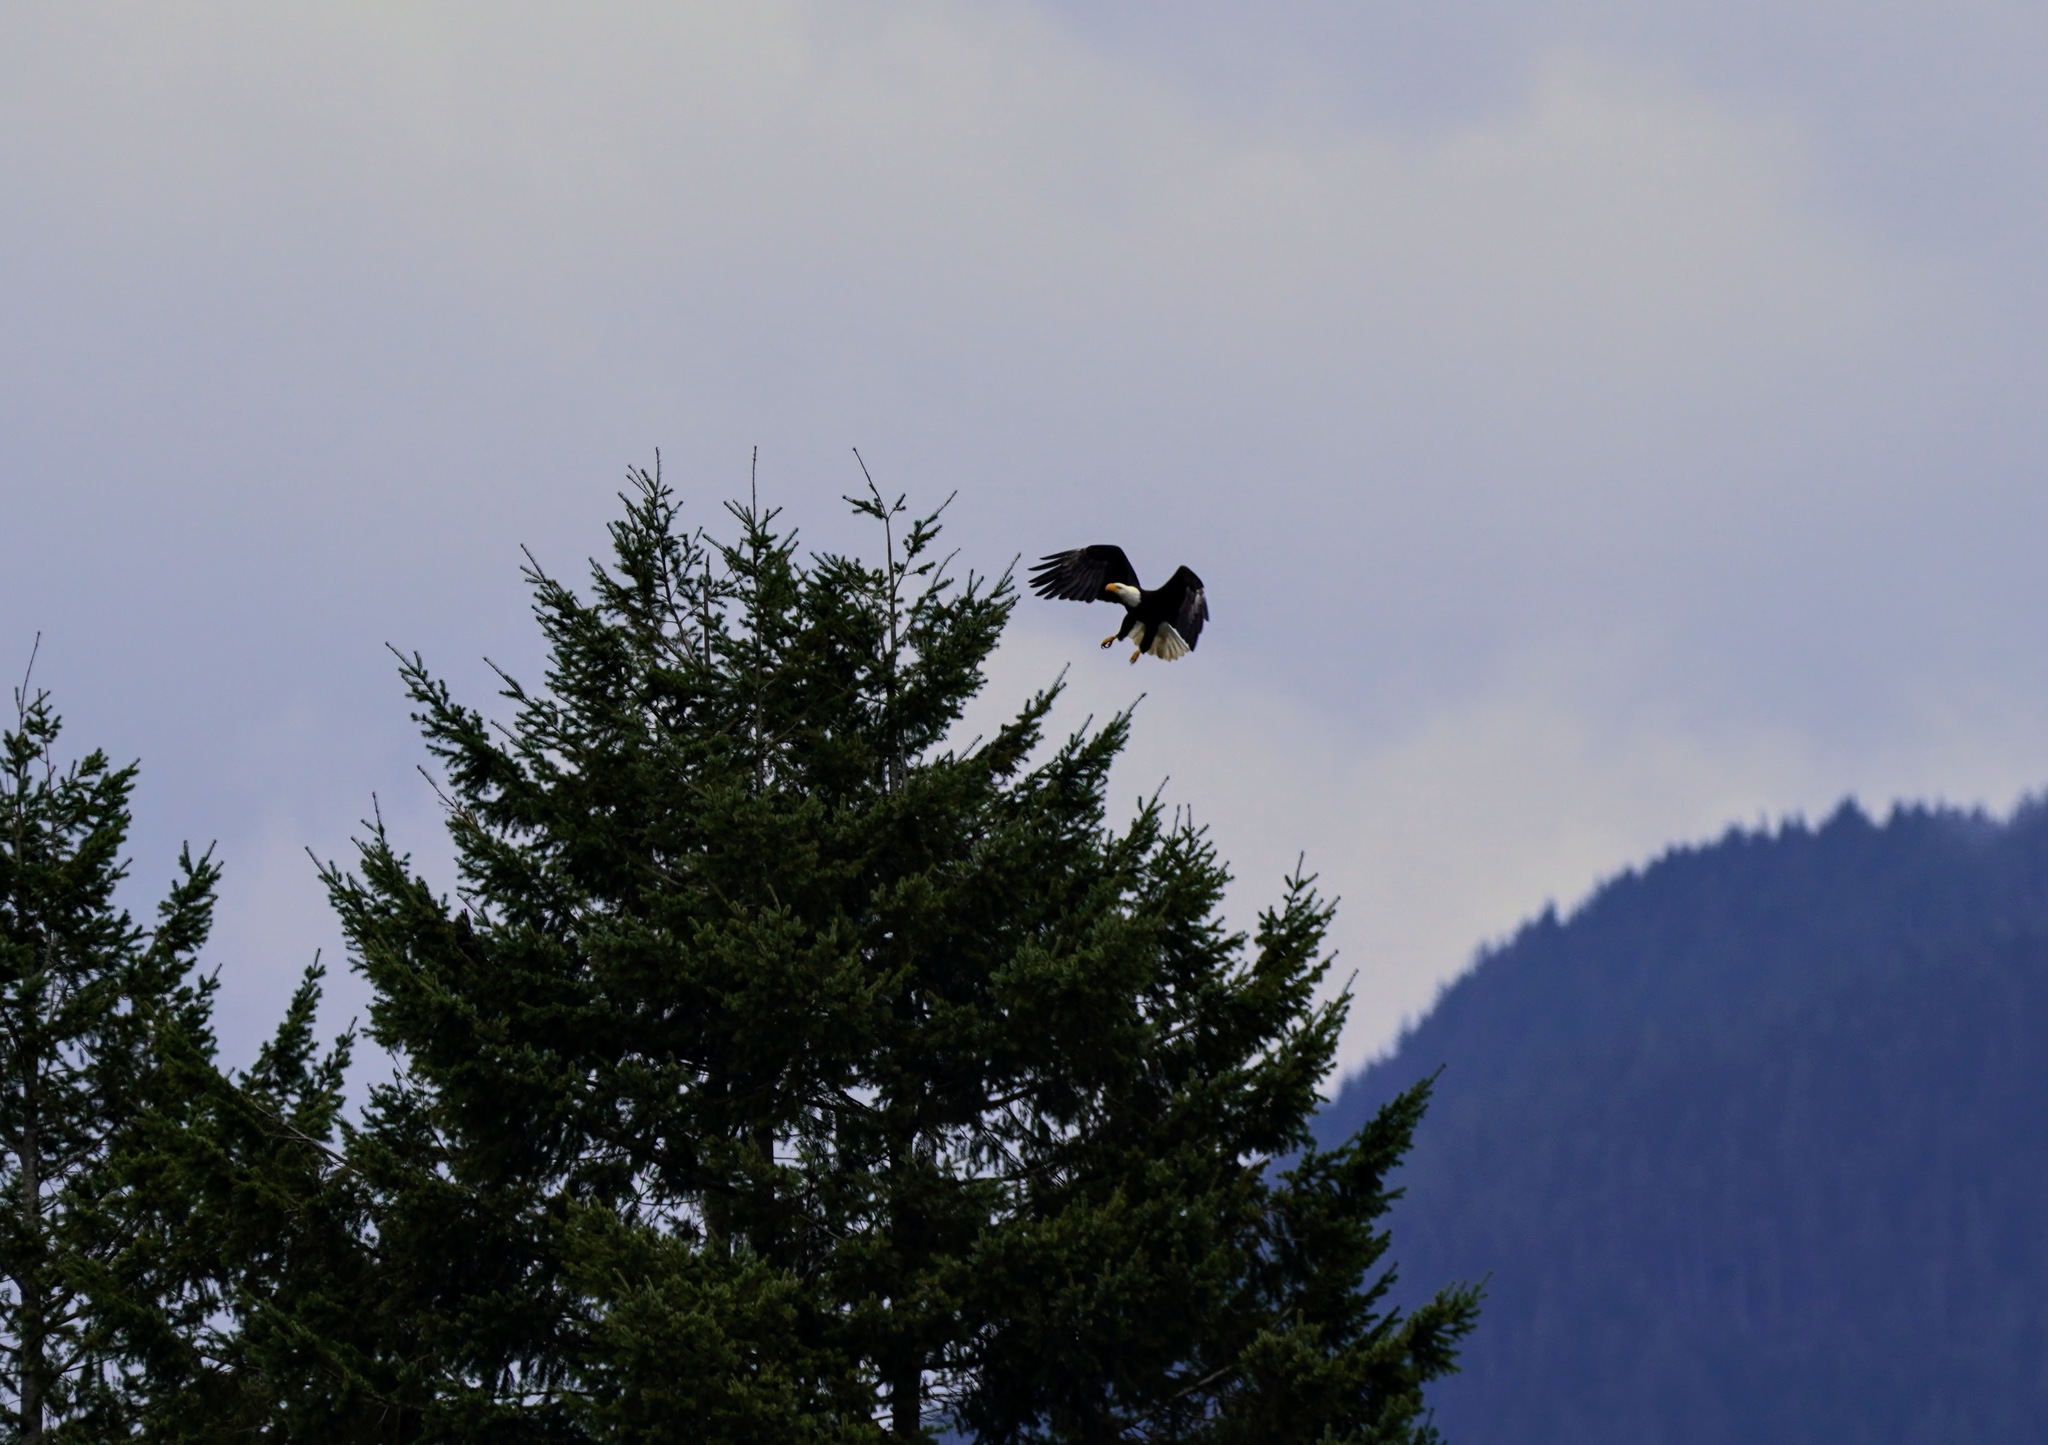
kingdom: Animalia
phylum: Chordata
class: Aves
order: Accipitriformes
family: Accipitridae
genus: Haliaeetus
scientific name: Haliaeetus leucocephalus
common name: Bald eagle
